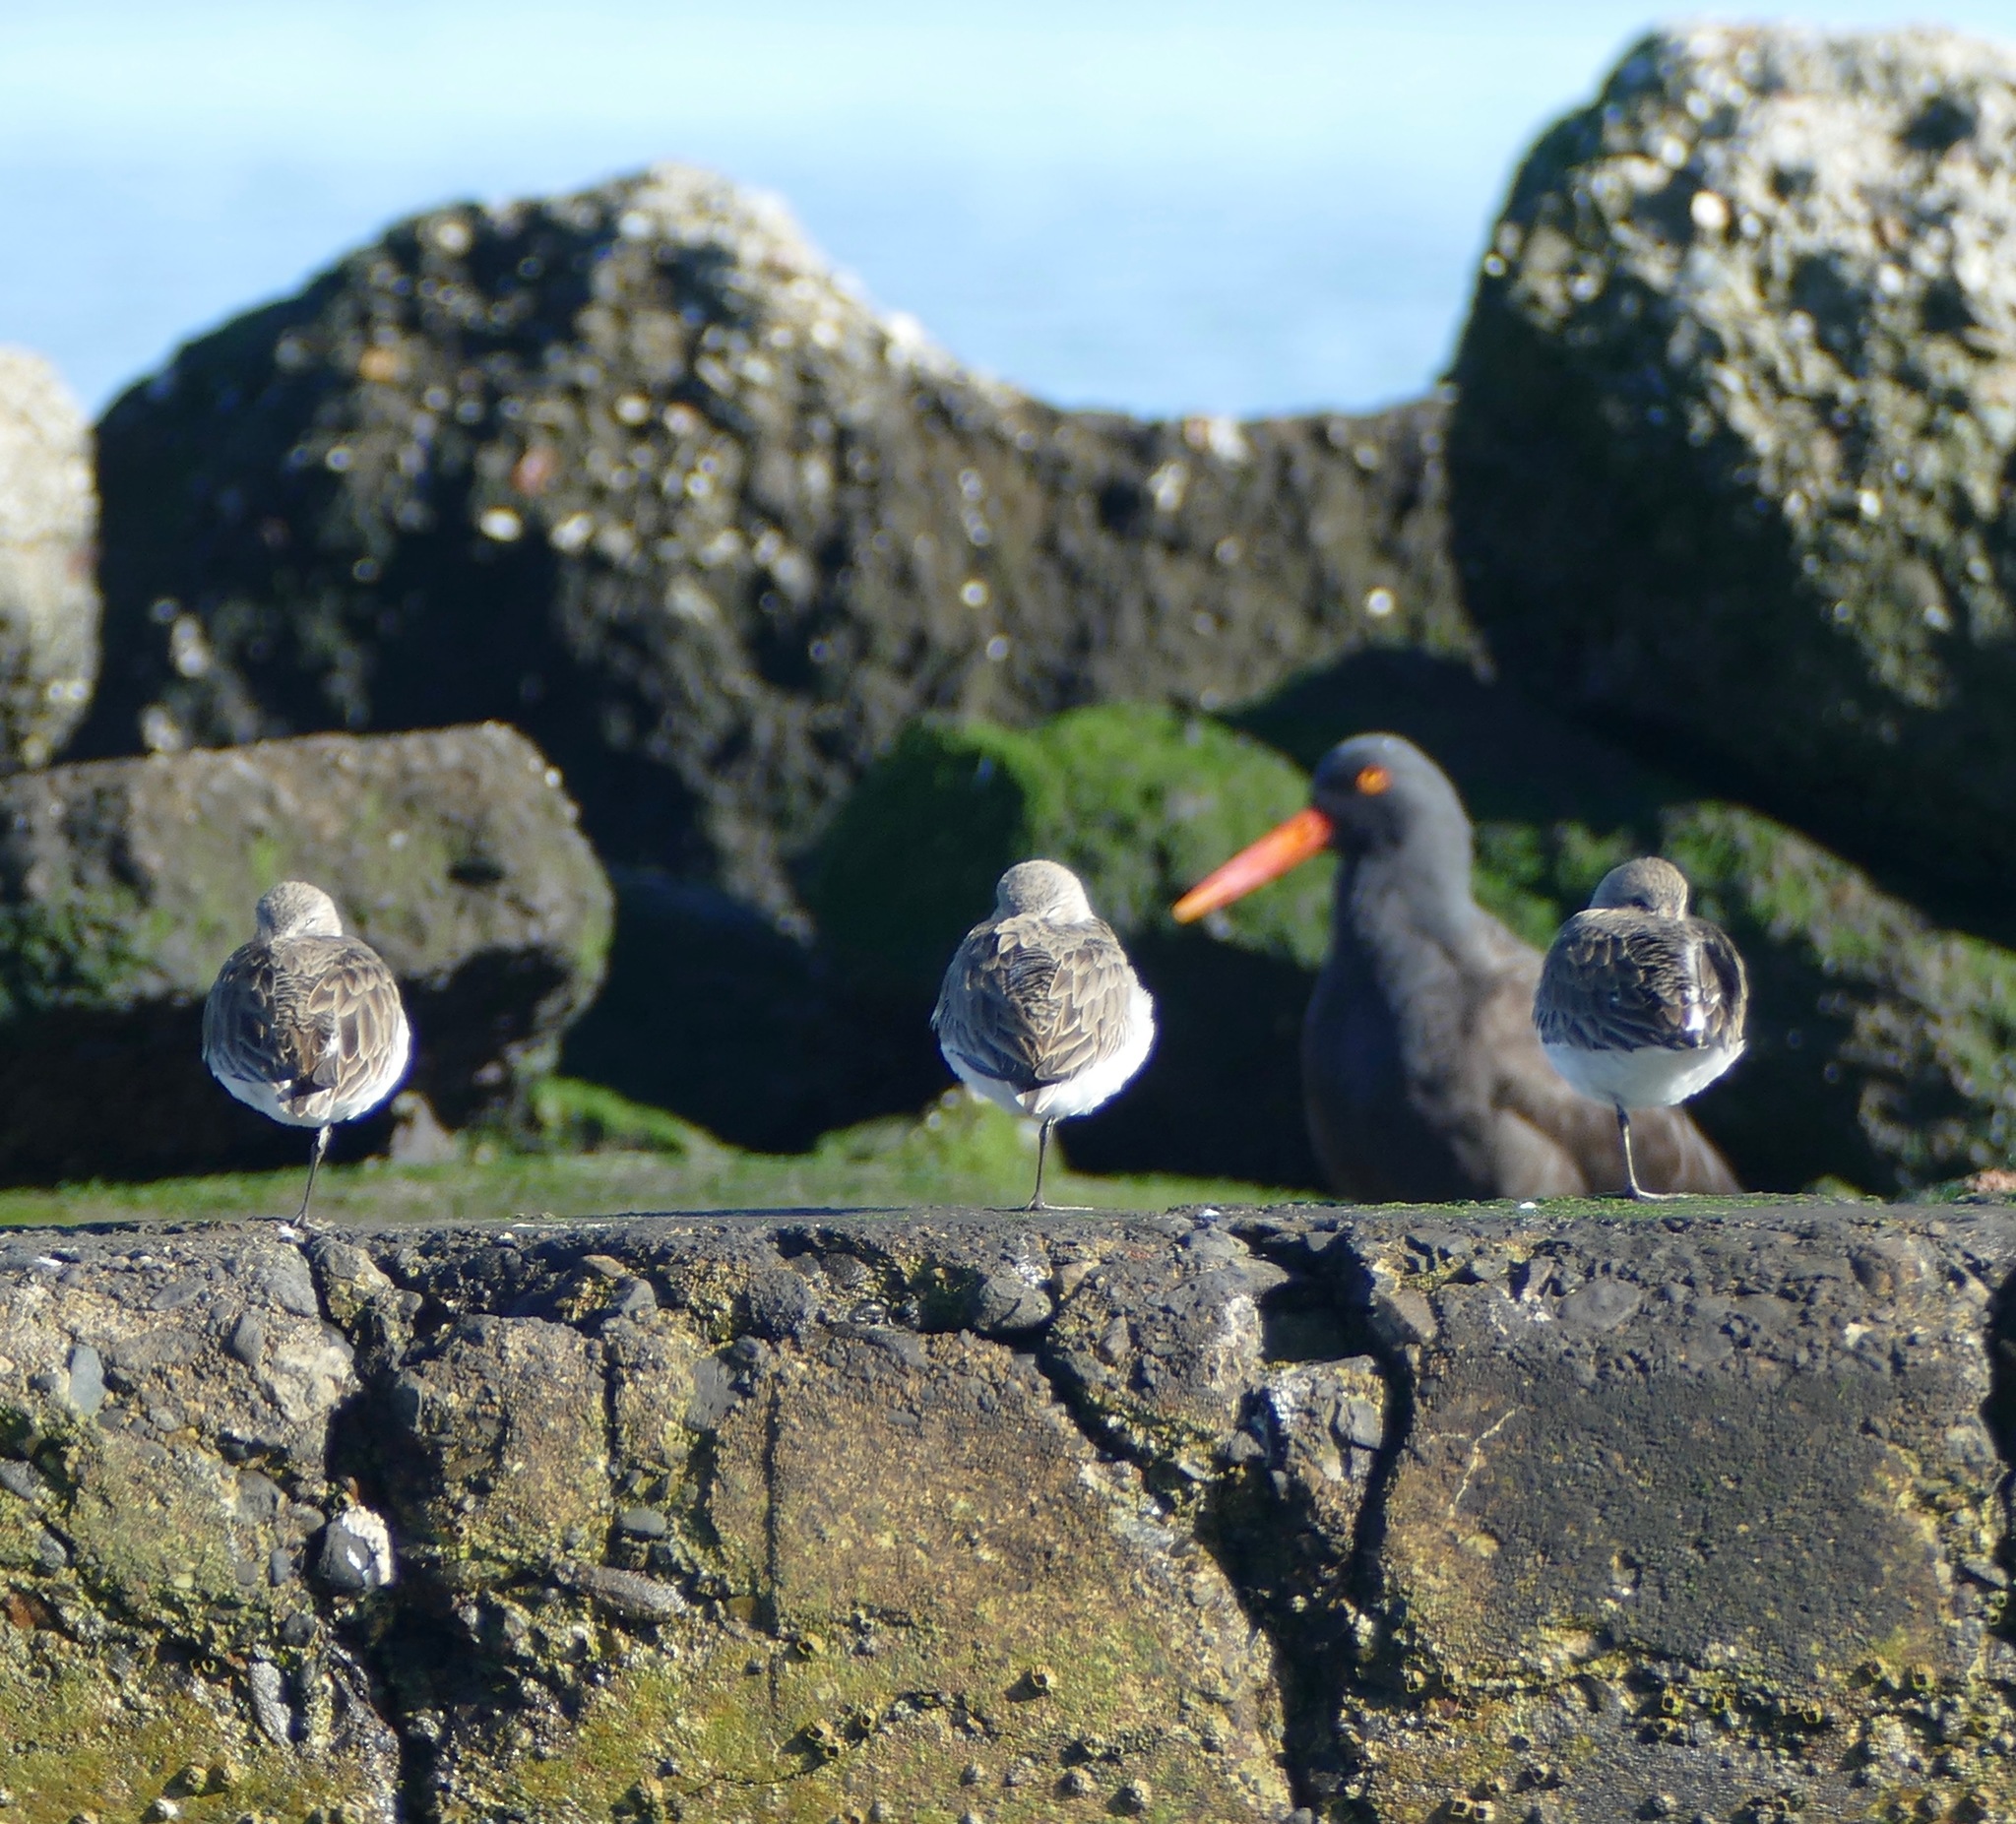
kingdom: Animalia
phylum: Chordata
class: Aves
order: Charadriiformes
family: Scolopacidae
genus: Calidris
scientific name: Calidris alpina
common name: Dunlin
